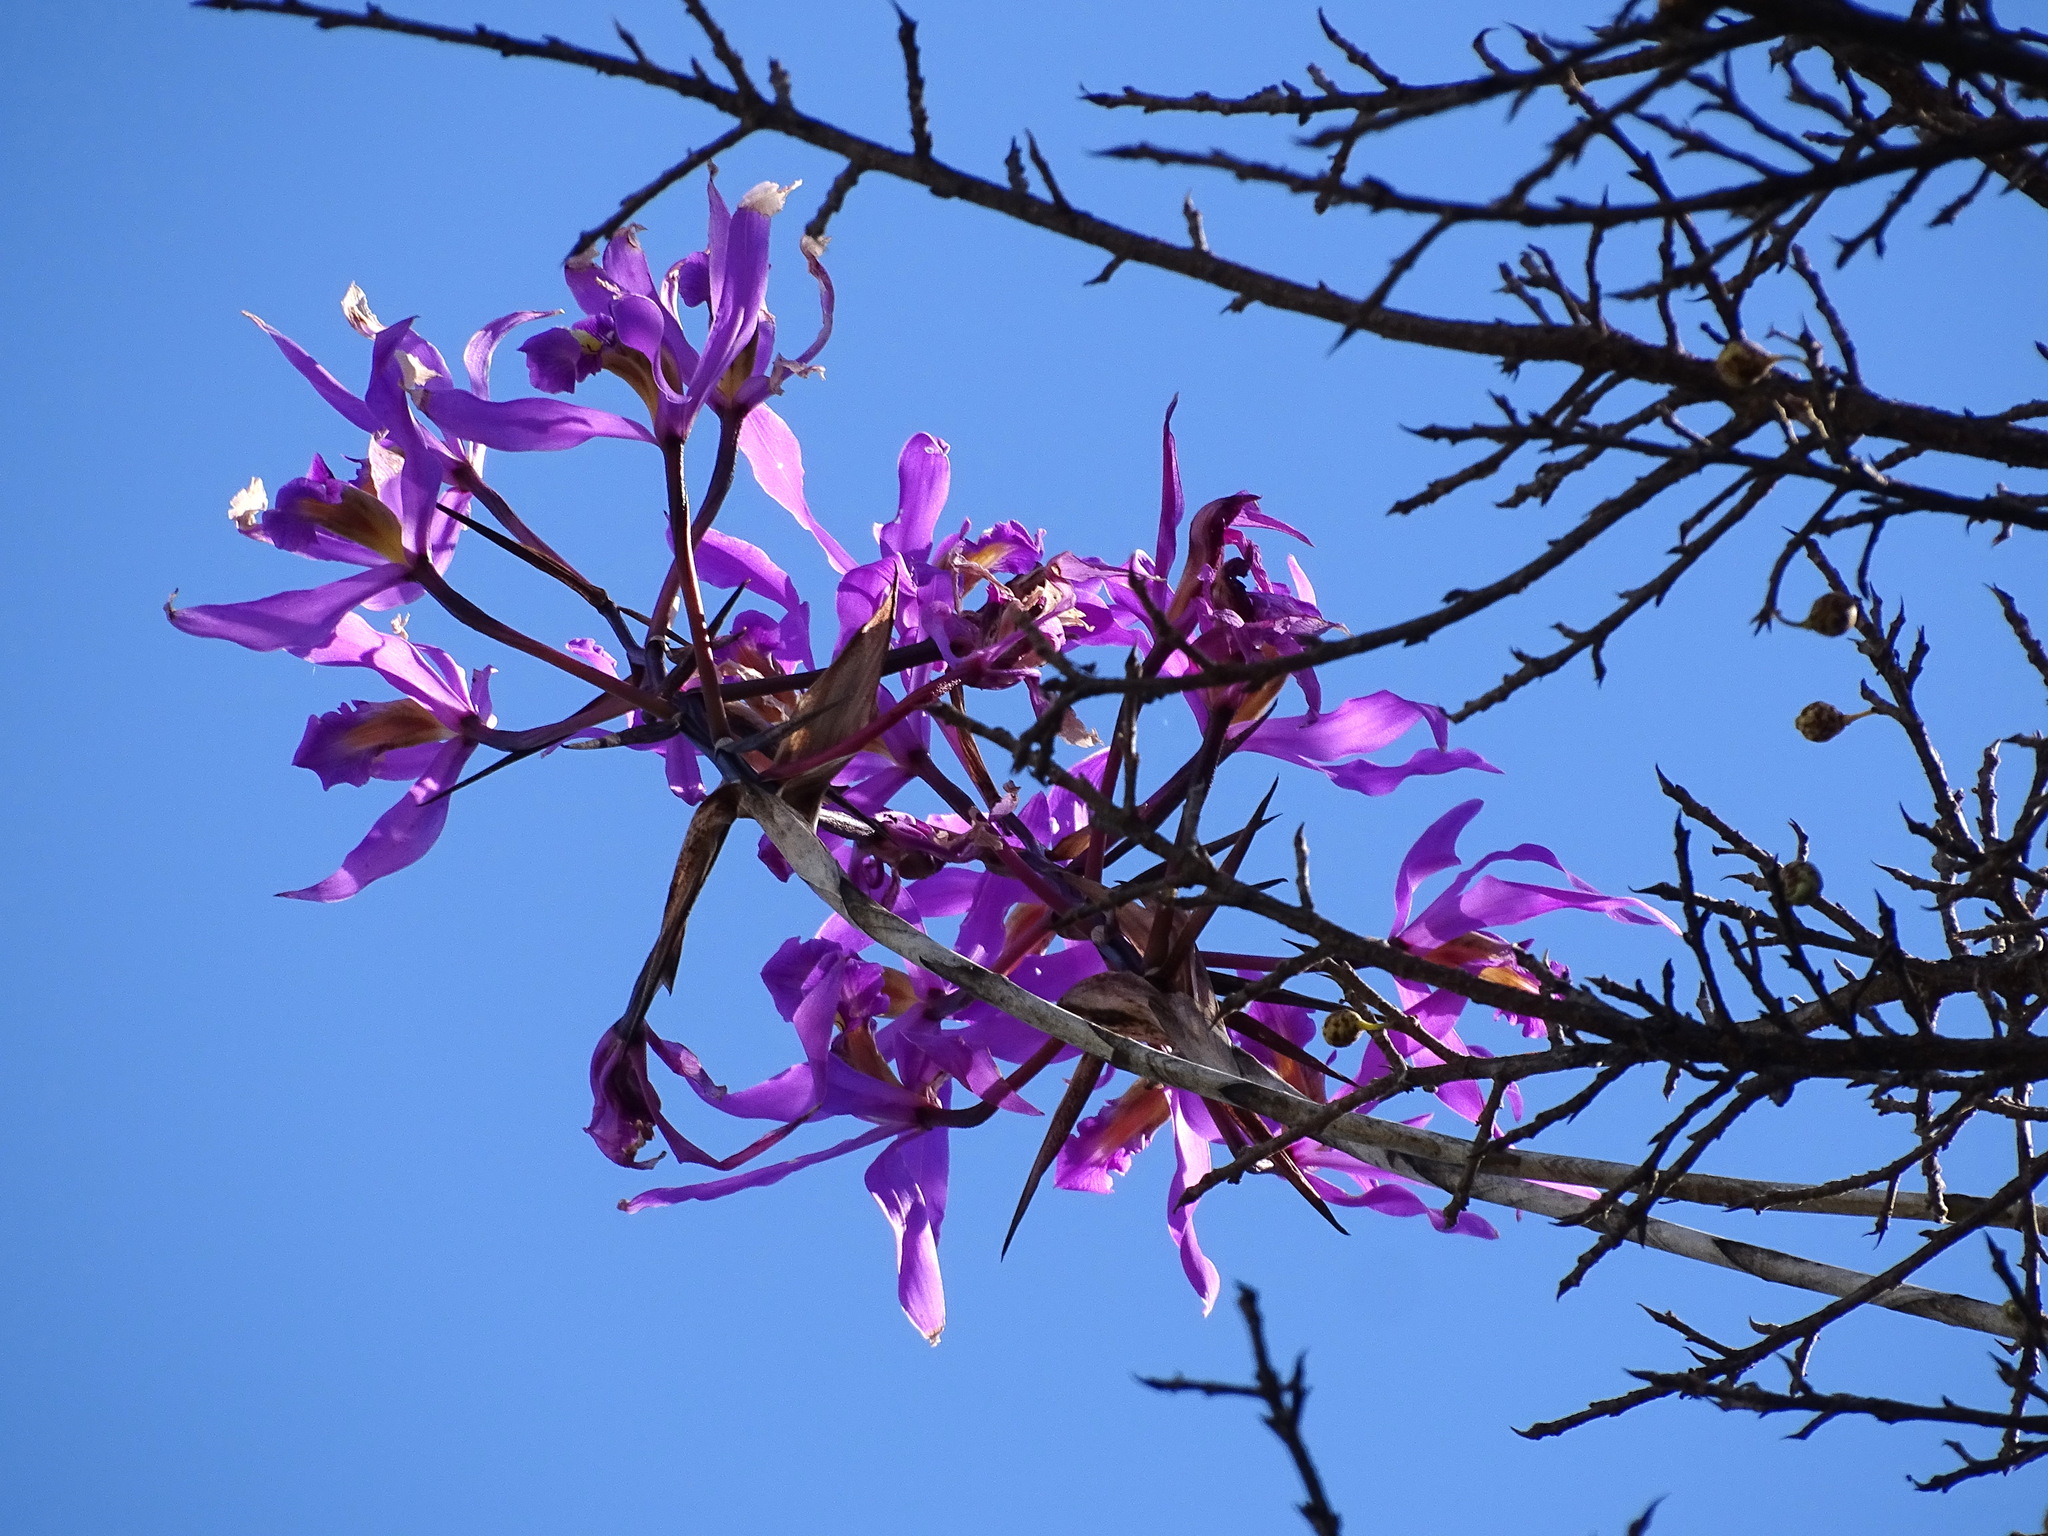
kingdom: Plantae
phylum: Tracheophyta
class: Liliopsida
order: Asparagales
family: Orchidaceae
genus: Laelia
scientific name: Laelia superbiens
